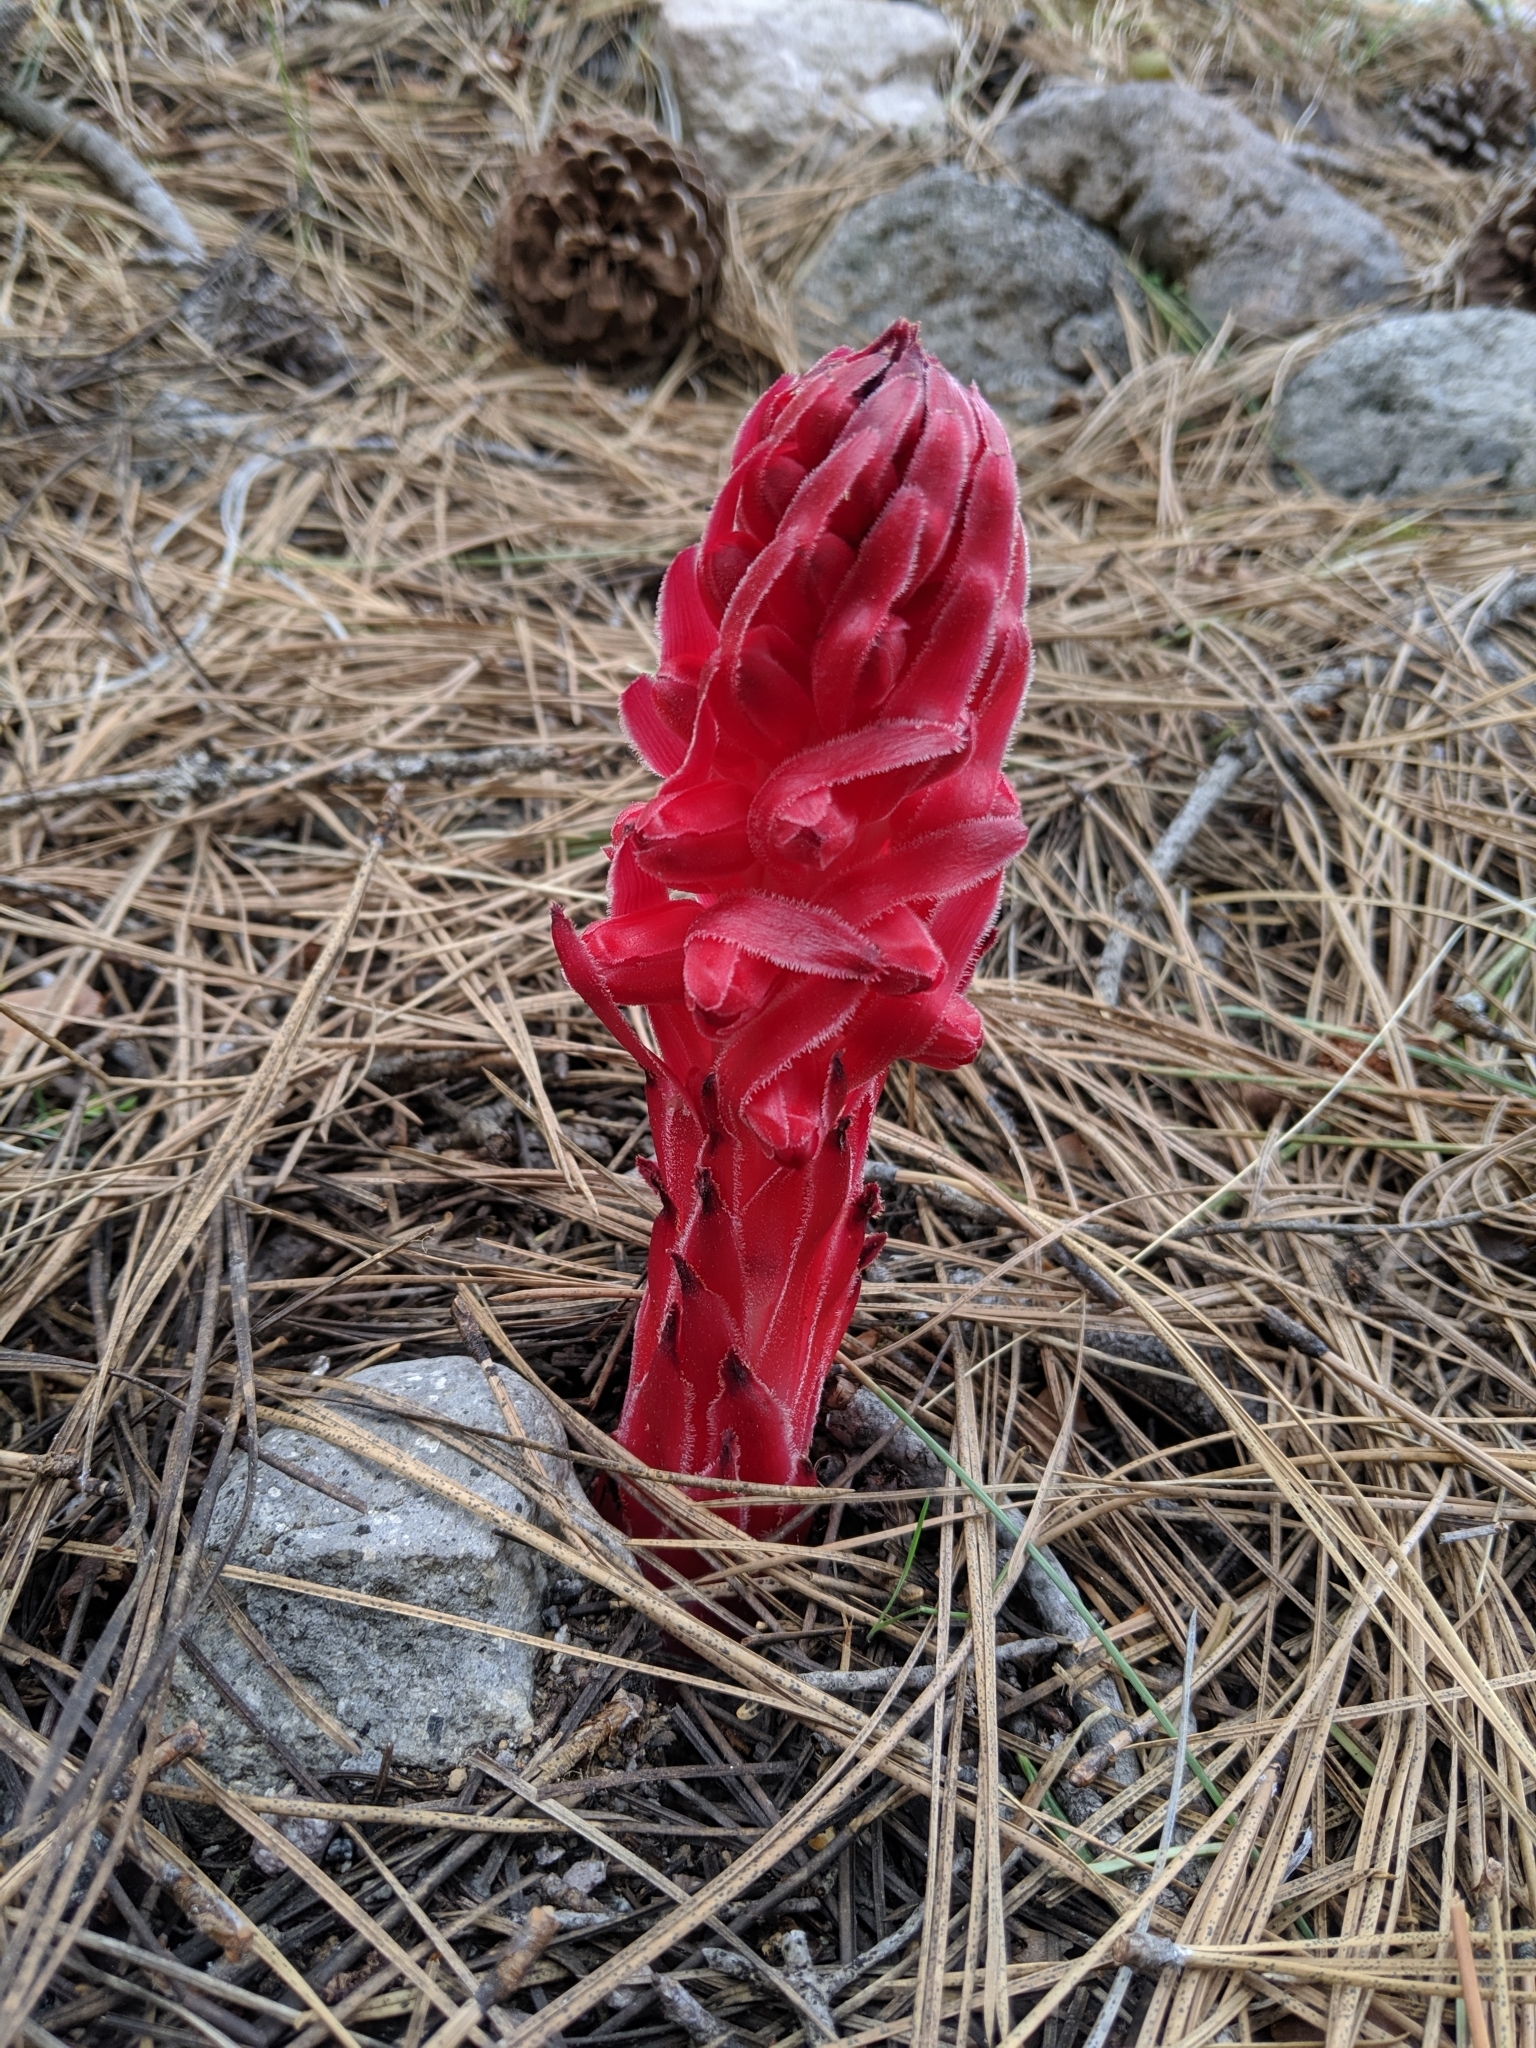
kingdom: Plantae
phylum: Tracheophyta
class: Magnoliopsida
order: Ericales
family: Ericaceae
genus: Sarcodes
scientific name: Sarcodes sanguinea
